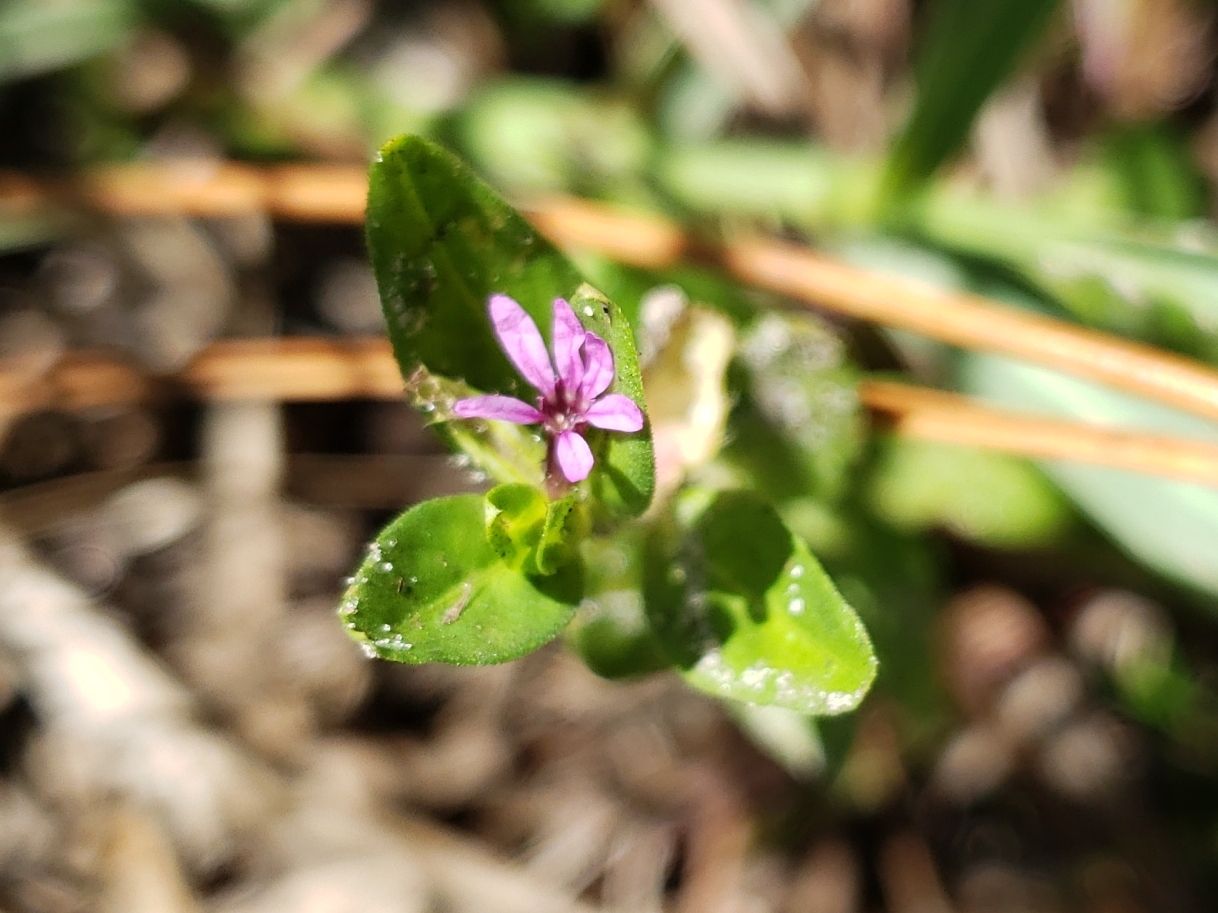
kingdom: Plantae
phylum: Tracheophyta
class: Magnoliopsida
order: Myrtales
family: Lythraceae
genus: Cuphea
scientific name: Cuphea carthagenensis
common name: Colombian waxweed
